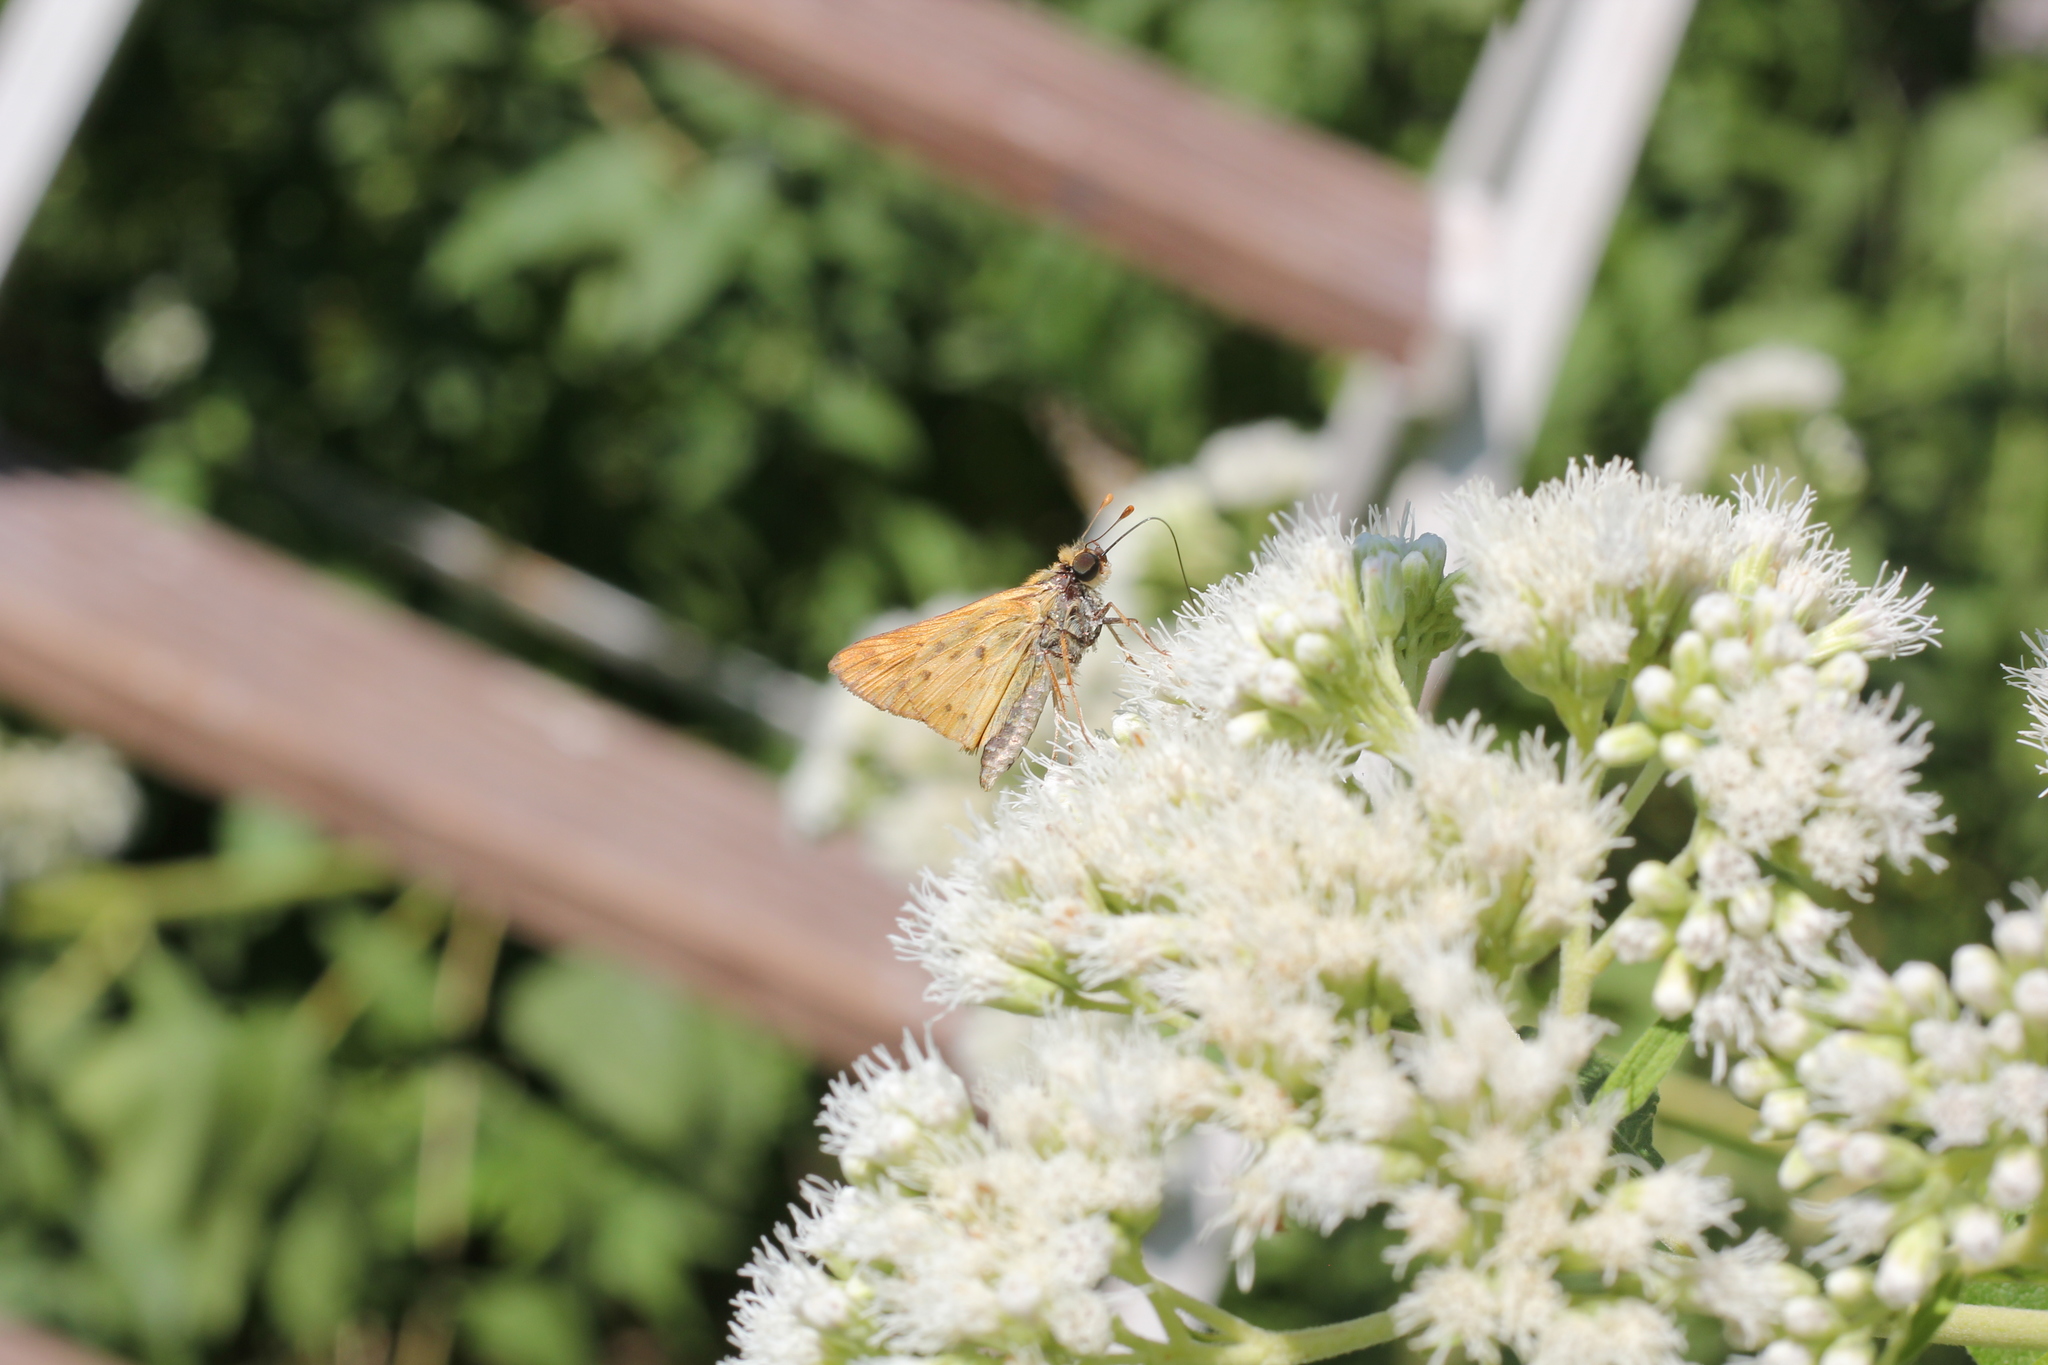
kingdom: Animalia
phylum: Arthropoda
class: Insecta
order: Lepidoptera
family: Hesperiidae
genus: Hylephila
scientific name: Hylephila phyleus
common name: Fiery skipper
